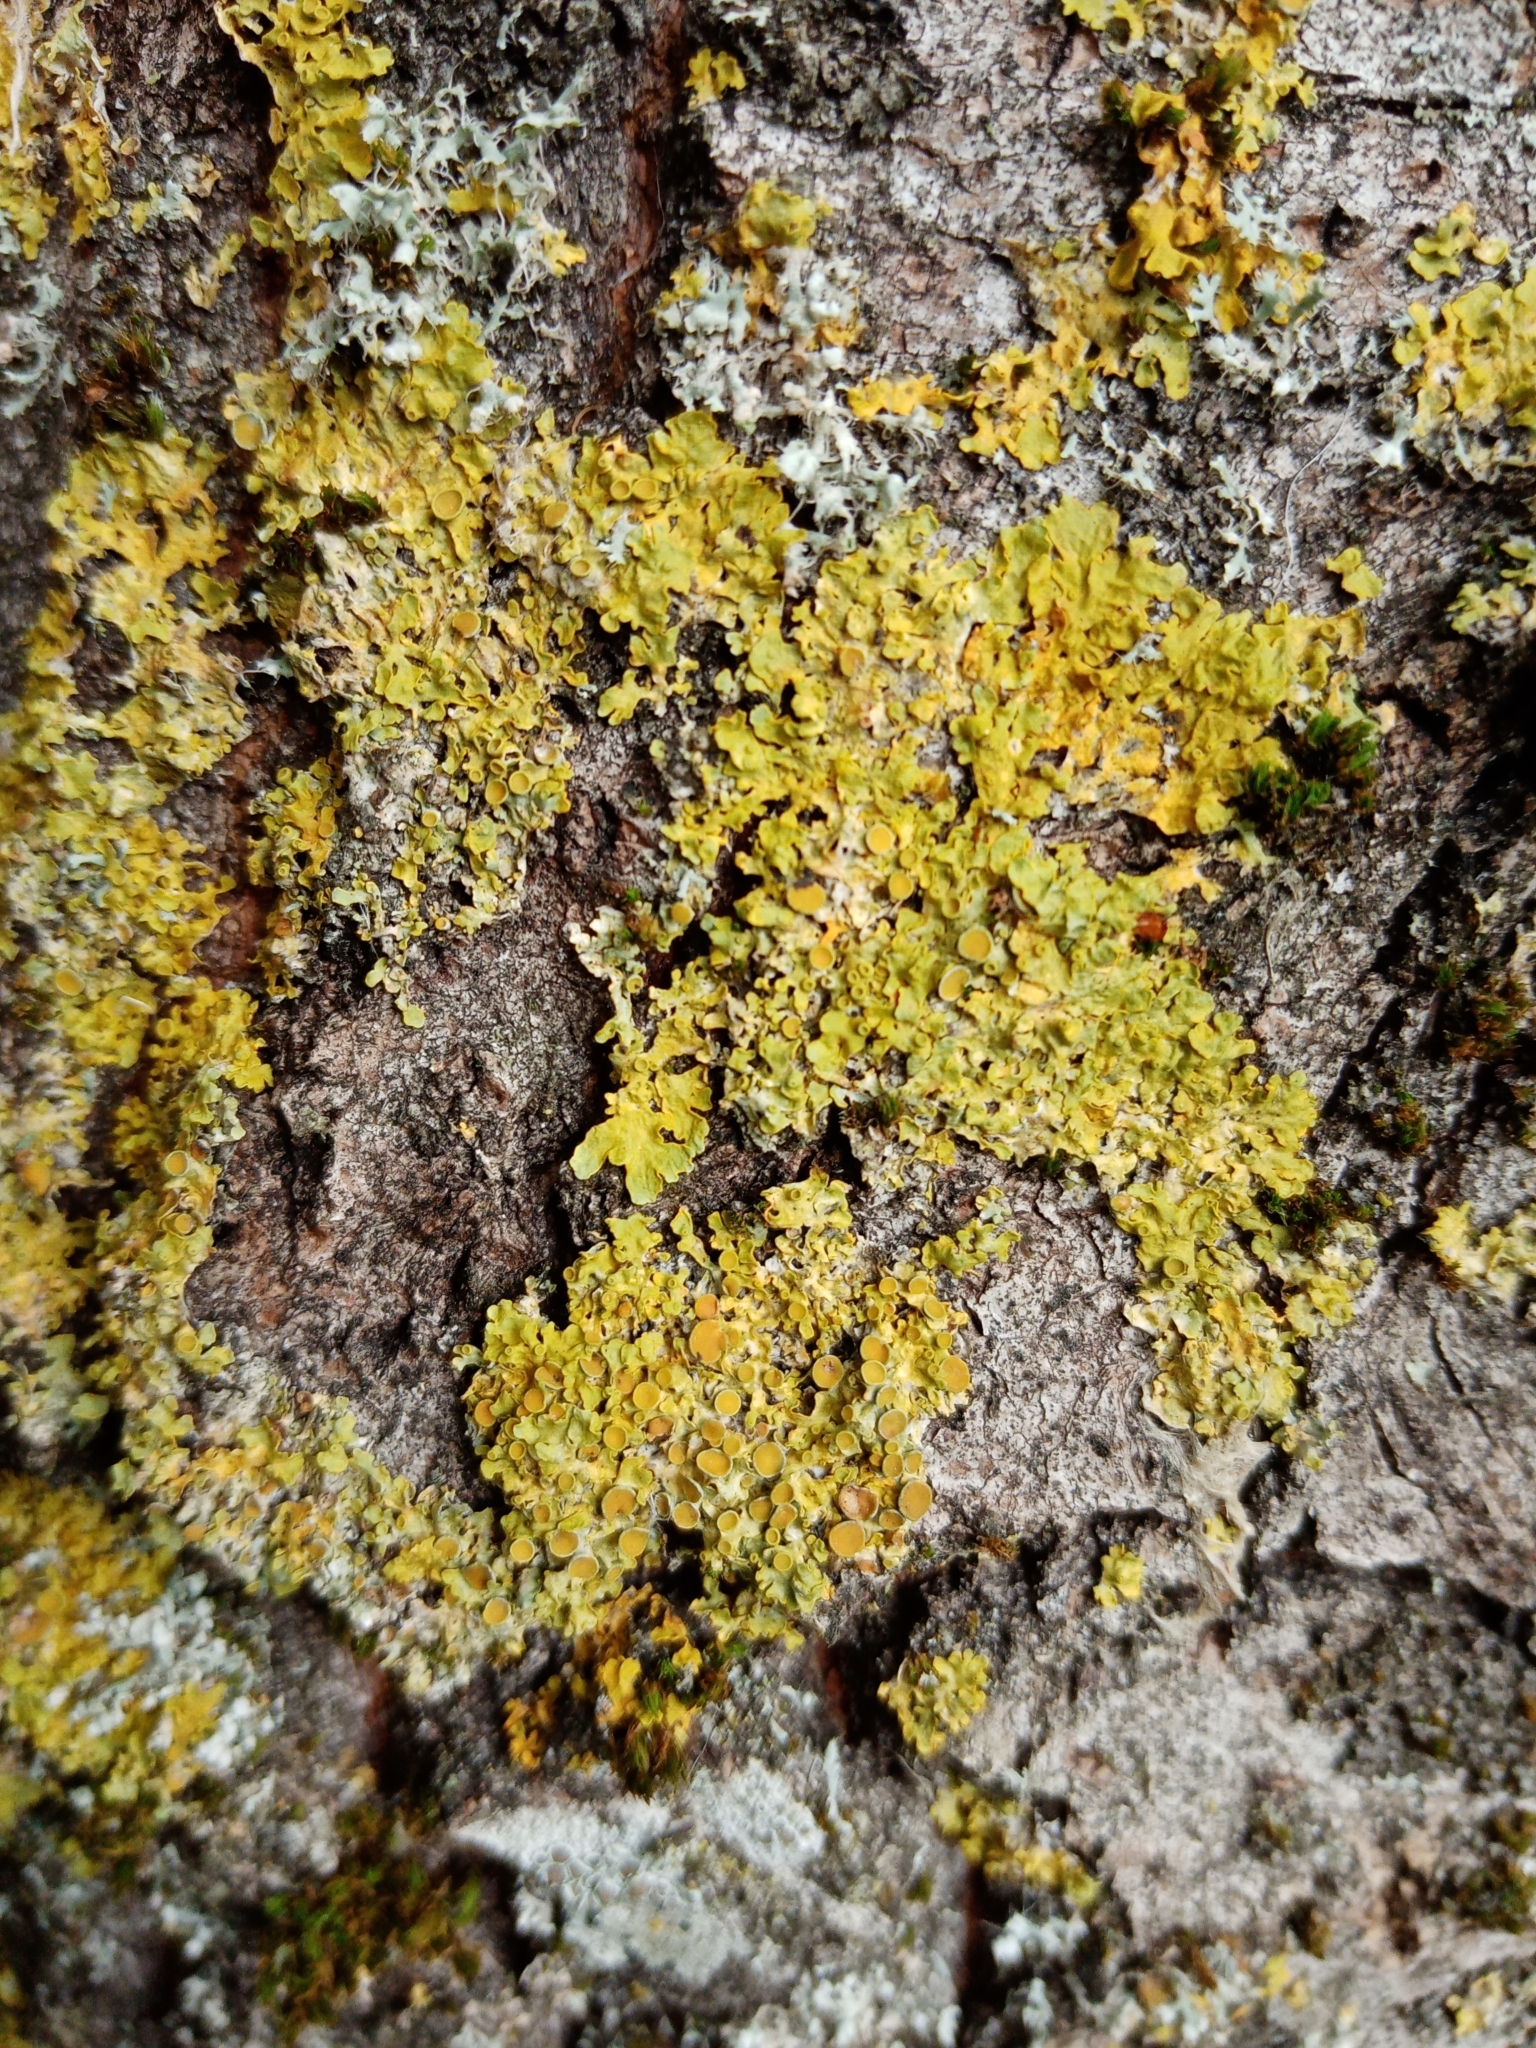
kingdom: Fungi
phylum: Ascomycota
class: Lecanoromycetes
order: Teloschistales
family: Teloschistaceae
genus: Xanthoria
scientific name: Xanthoria parietina
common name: Common orange lichen
